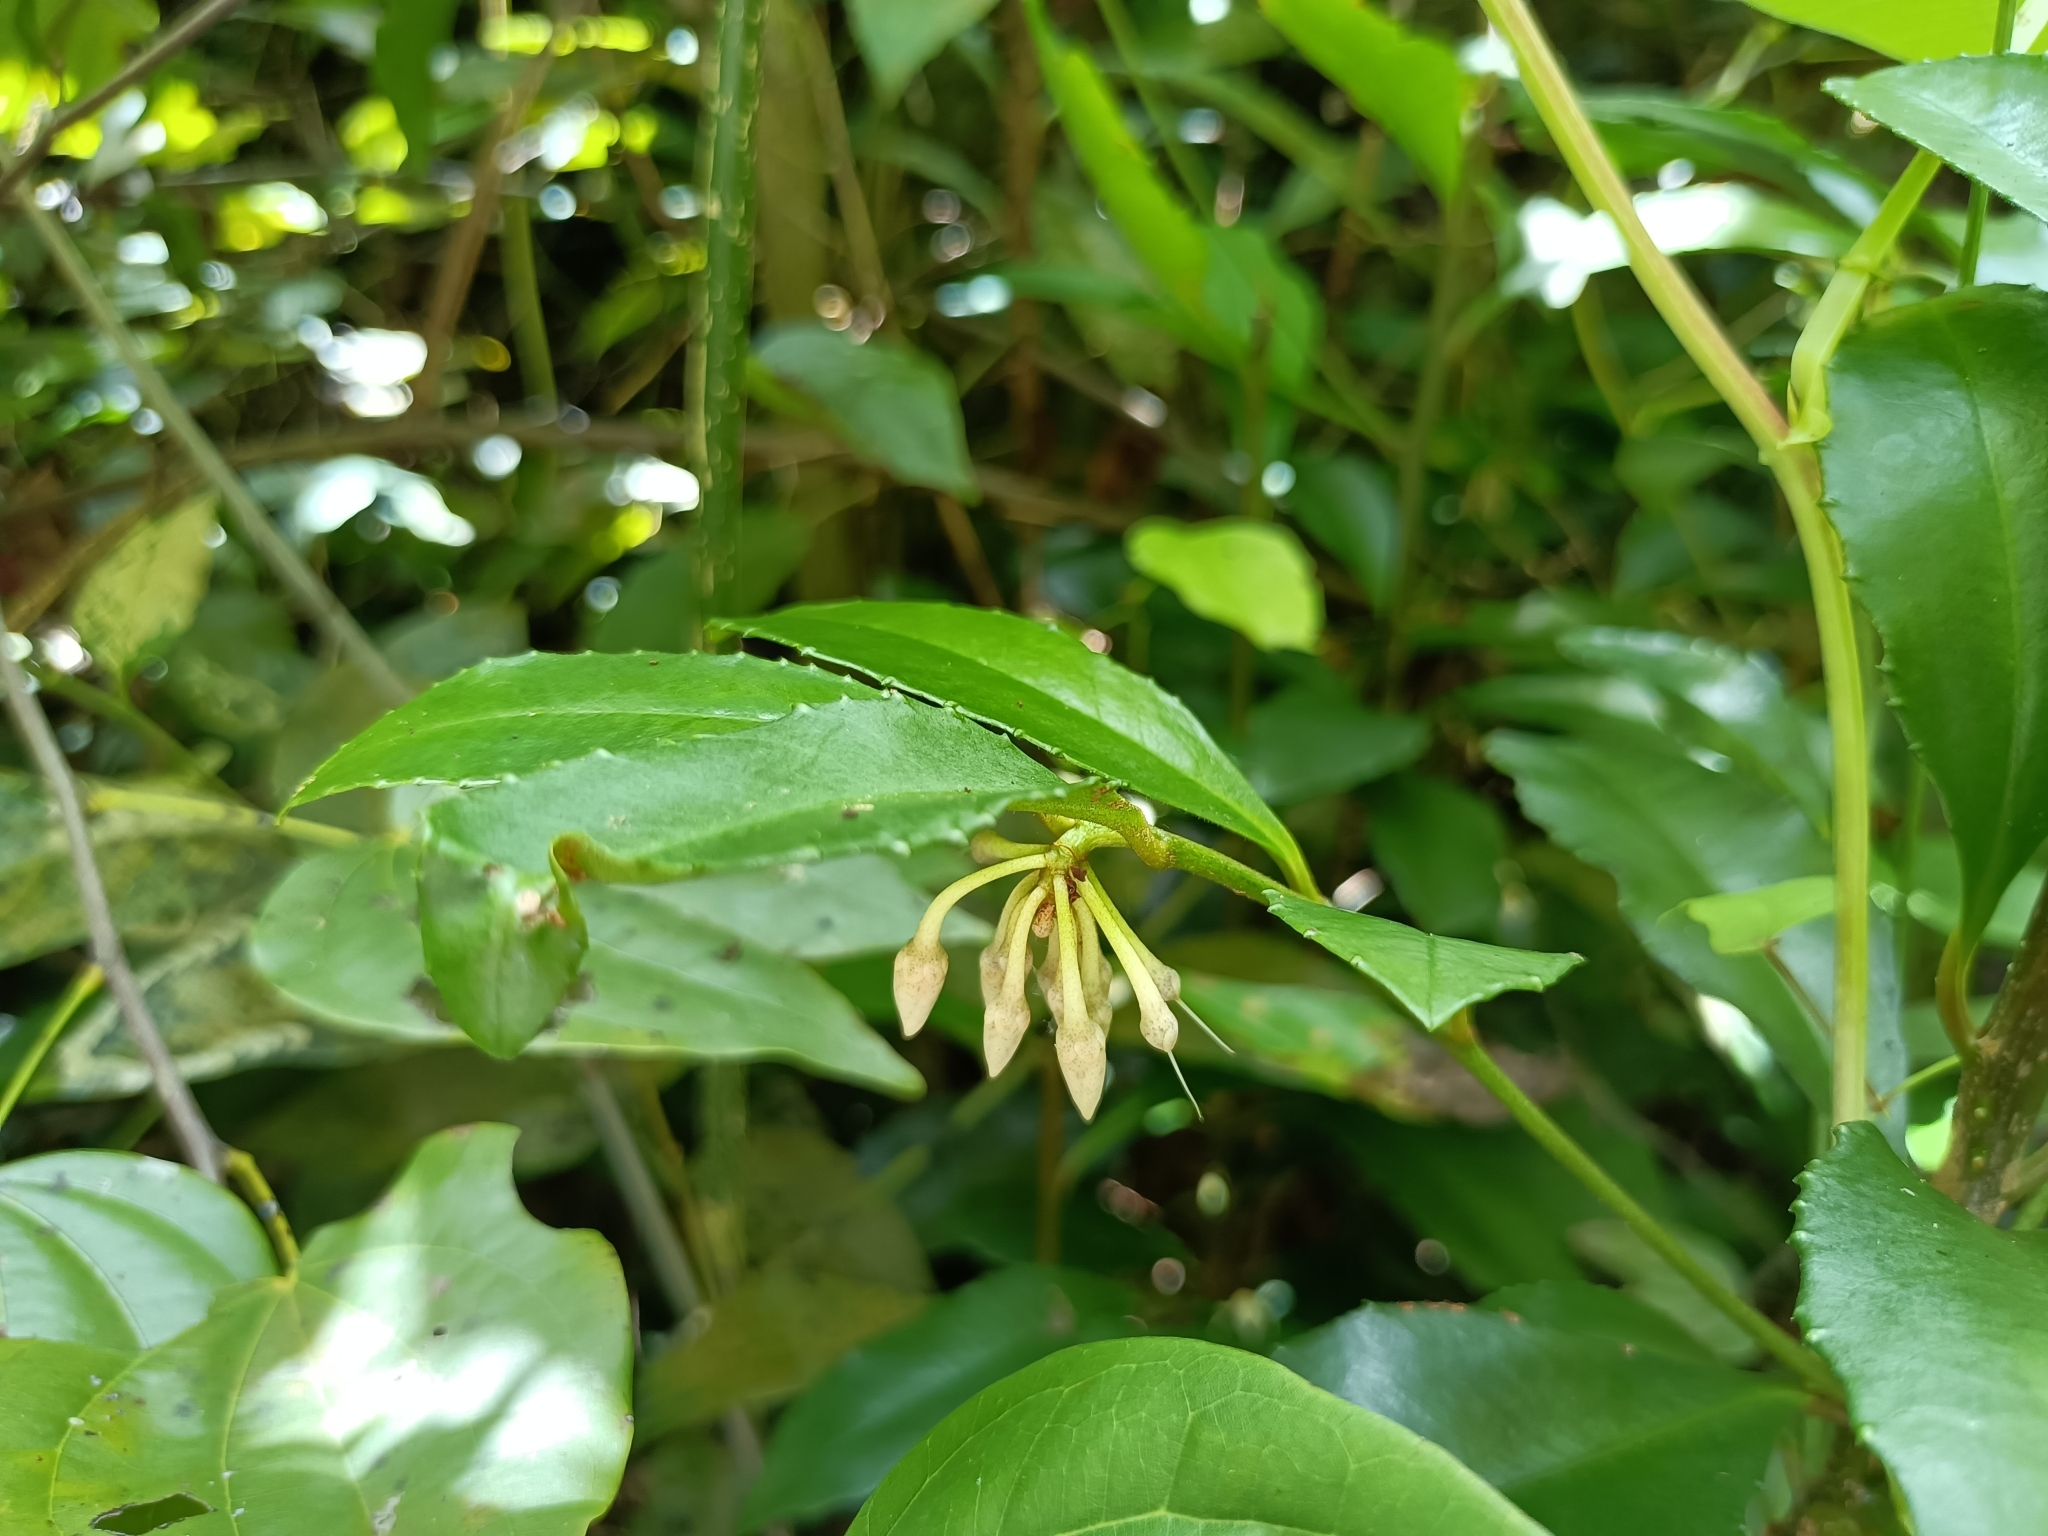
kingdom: Plantae
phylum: Tracheophyta
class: Magnoliopsida
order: Ericales
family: Primulaceae
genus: Ardisia
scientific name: Ardisia cornudentata
